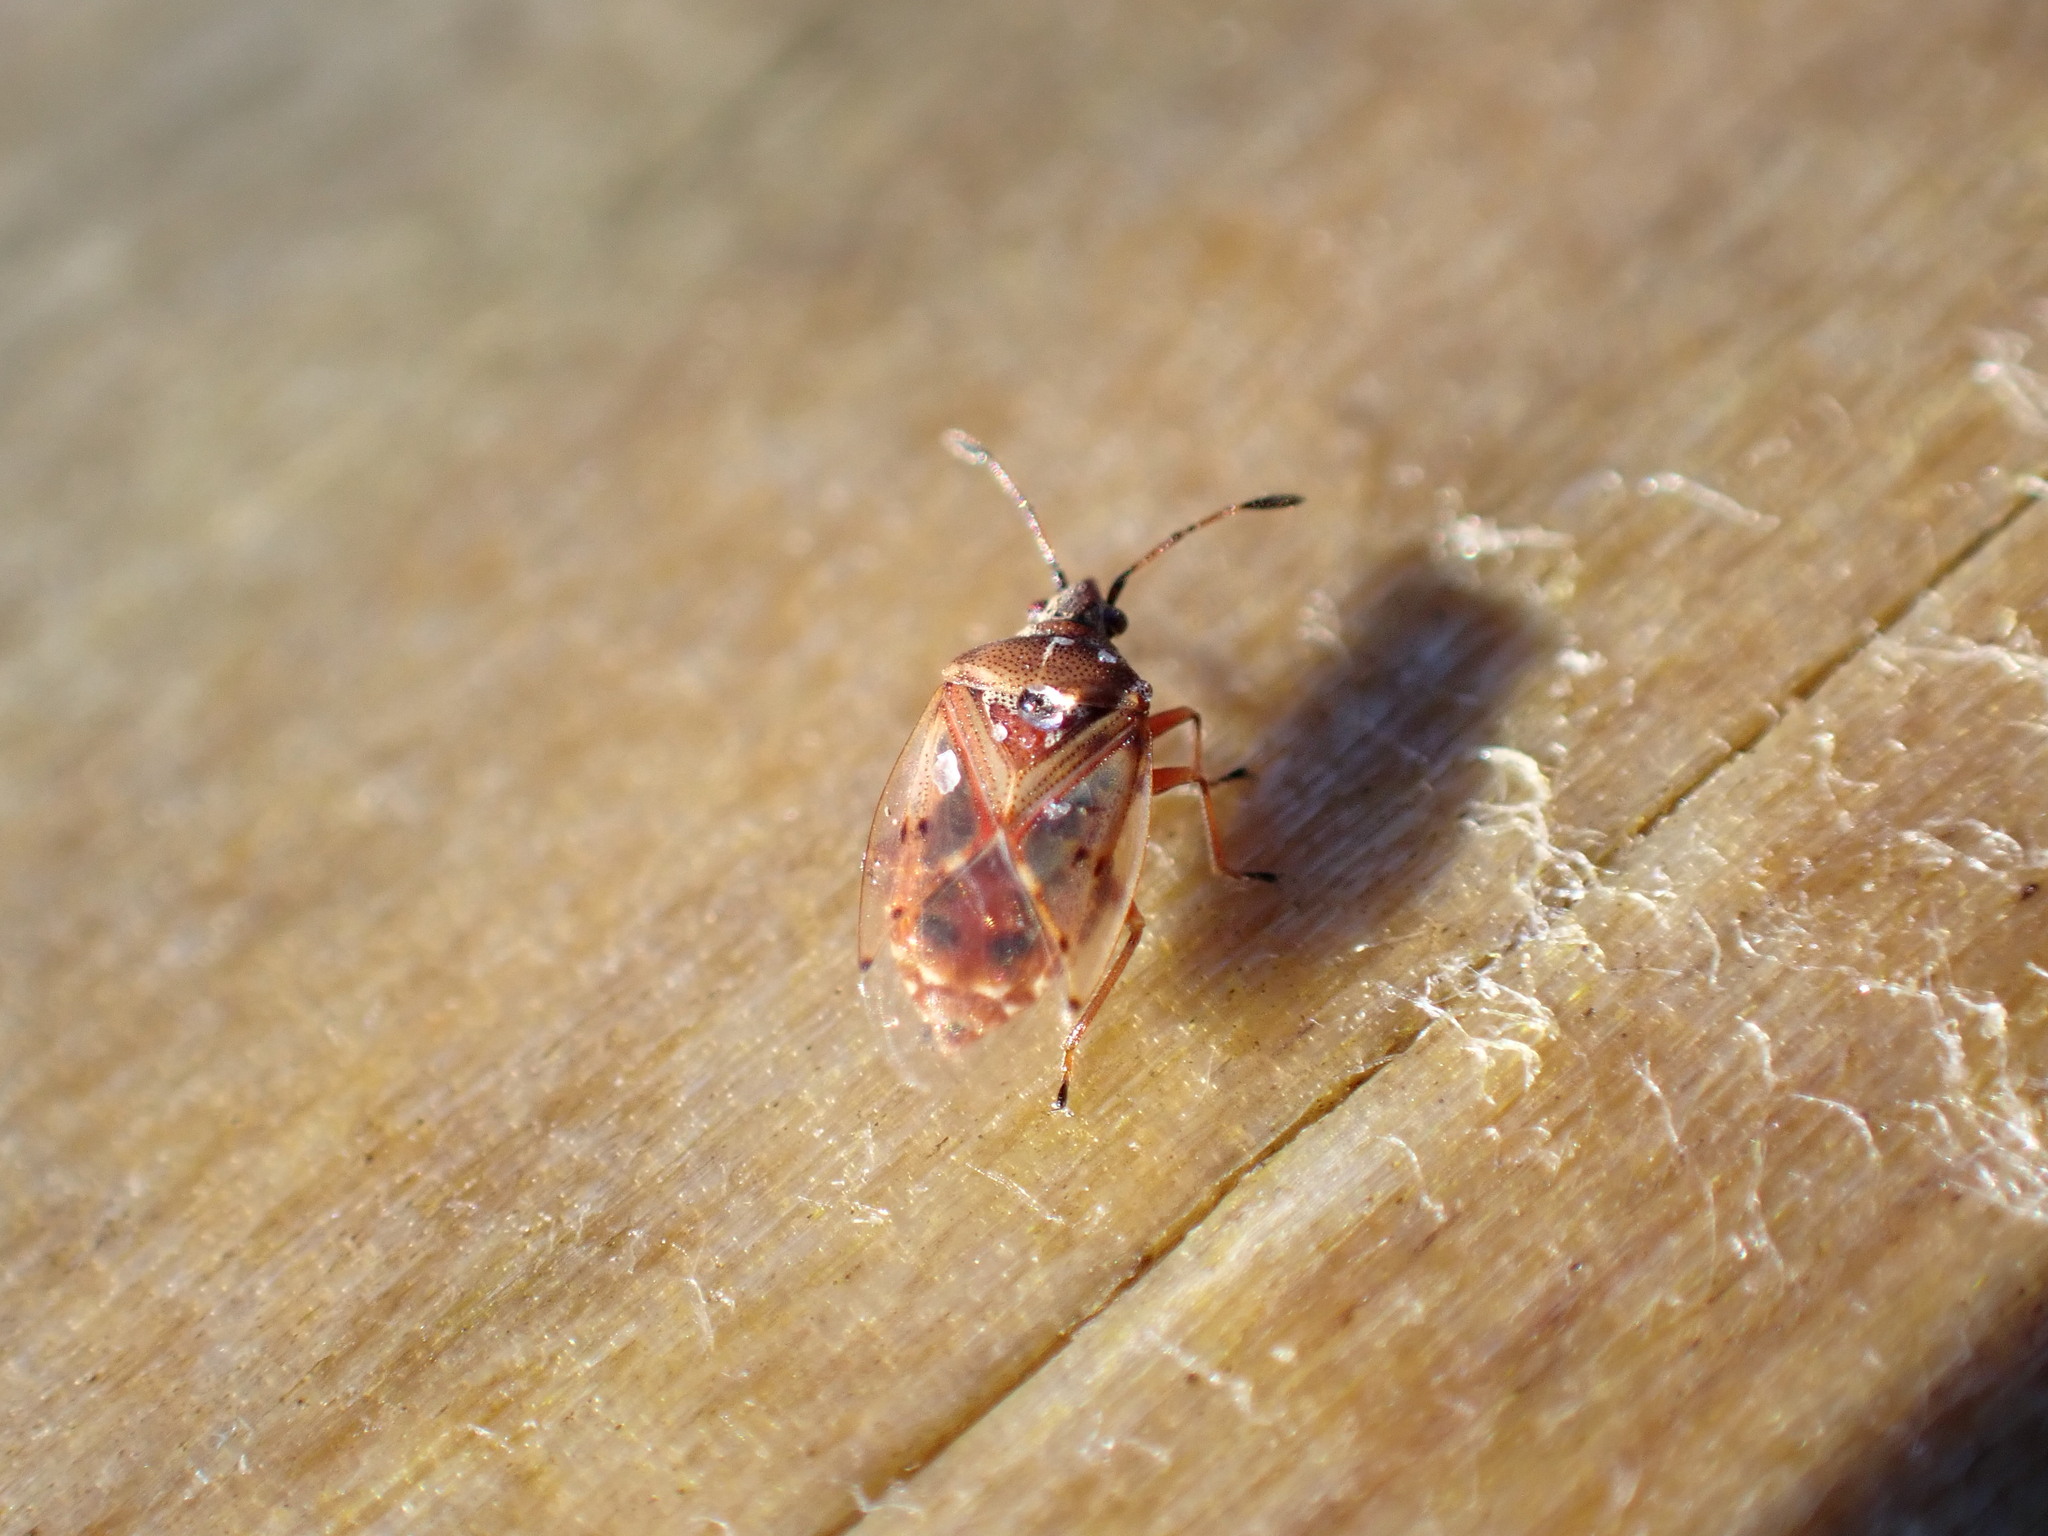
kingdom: Animalia
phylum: Arthropoda
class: Insecta
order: Hemiptera
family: Lygaeidae
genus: Kleidocerys
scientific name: Kleidocerys resedae
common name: Birch catkin bug
